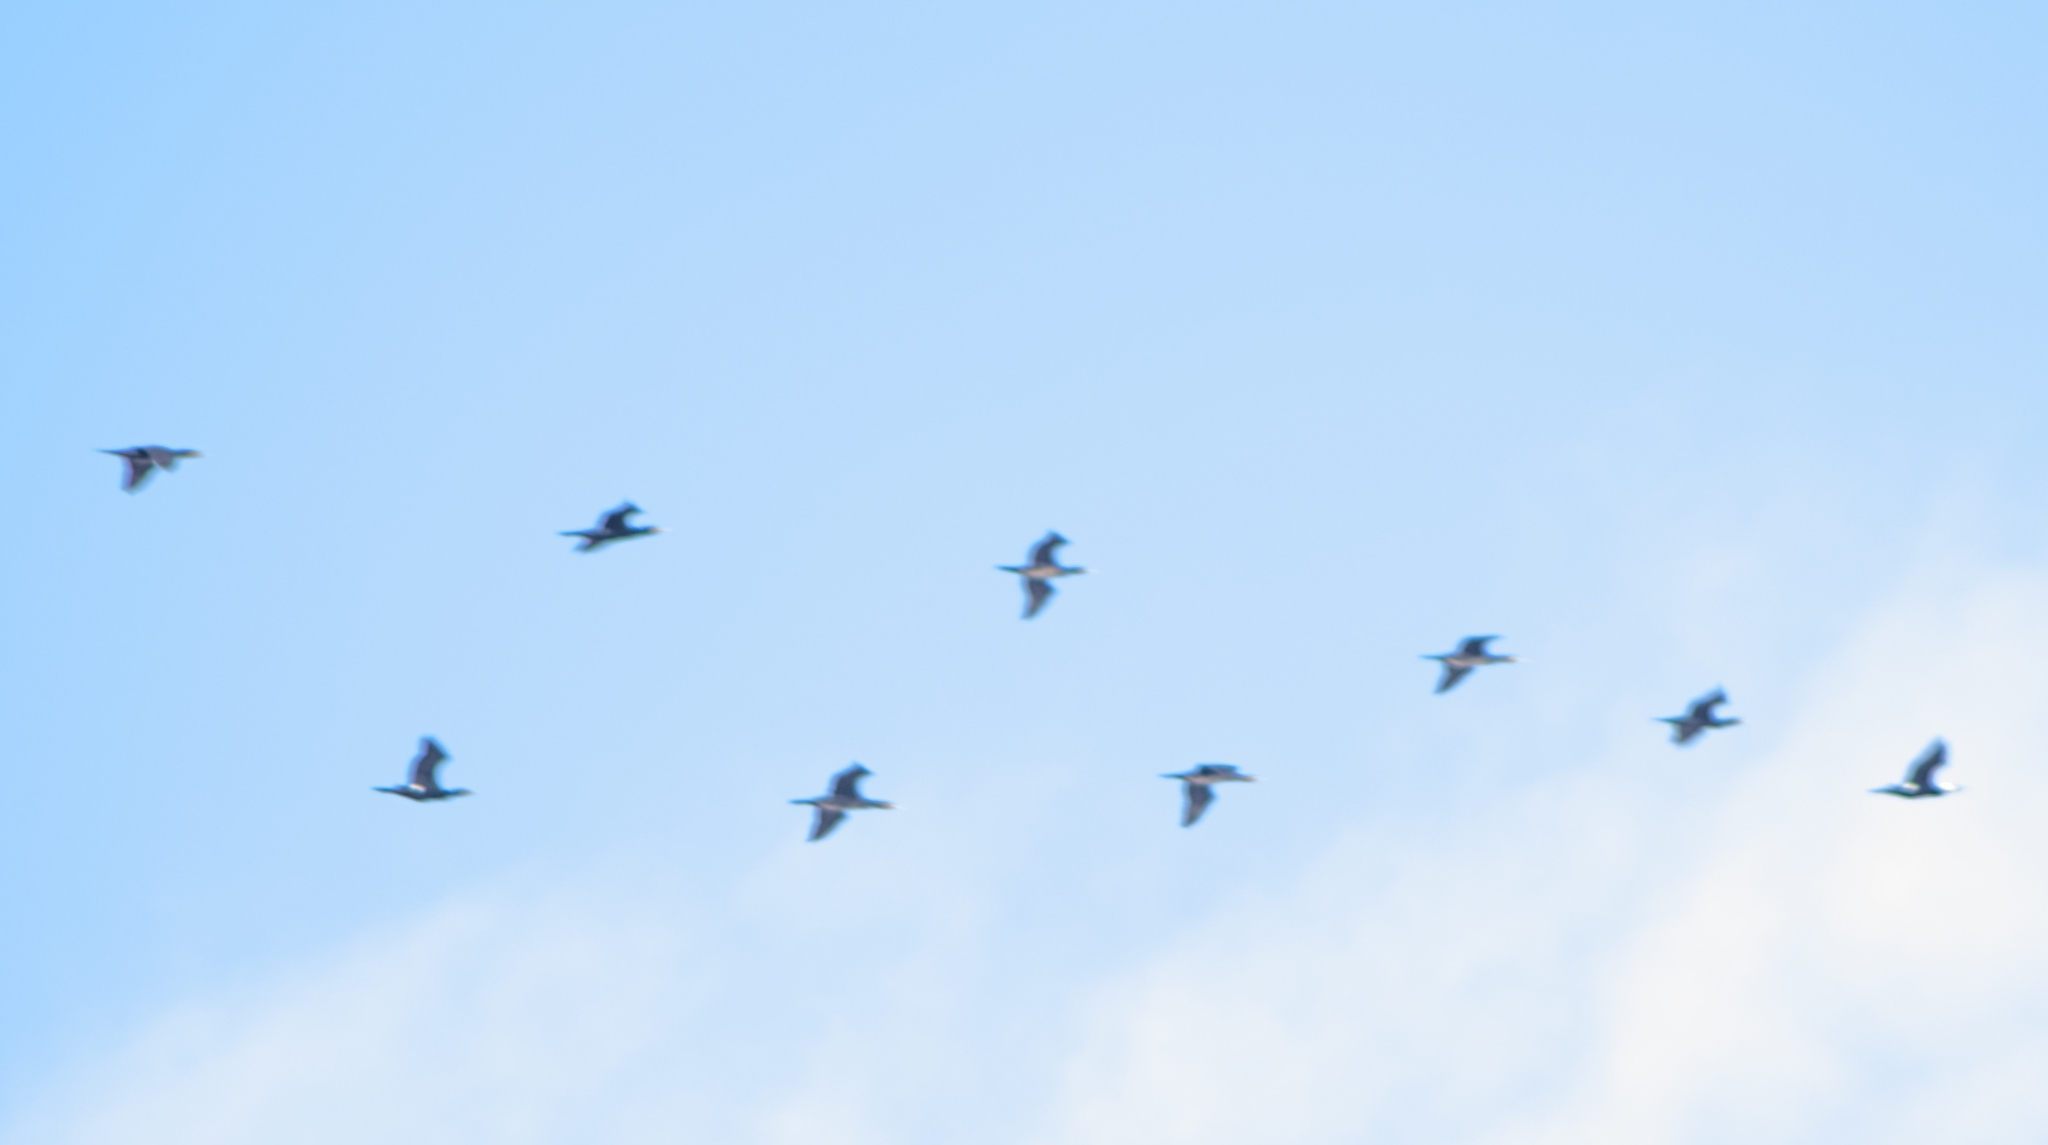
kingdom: Animalia
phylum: Chordata
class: Aves
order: Suliformes
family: Phalacrocoracidae
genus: Phalacrocorax
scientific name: Phalacrocorax carbo
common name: Great cormorant
